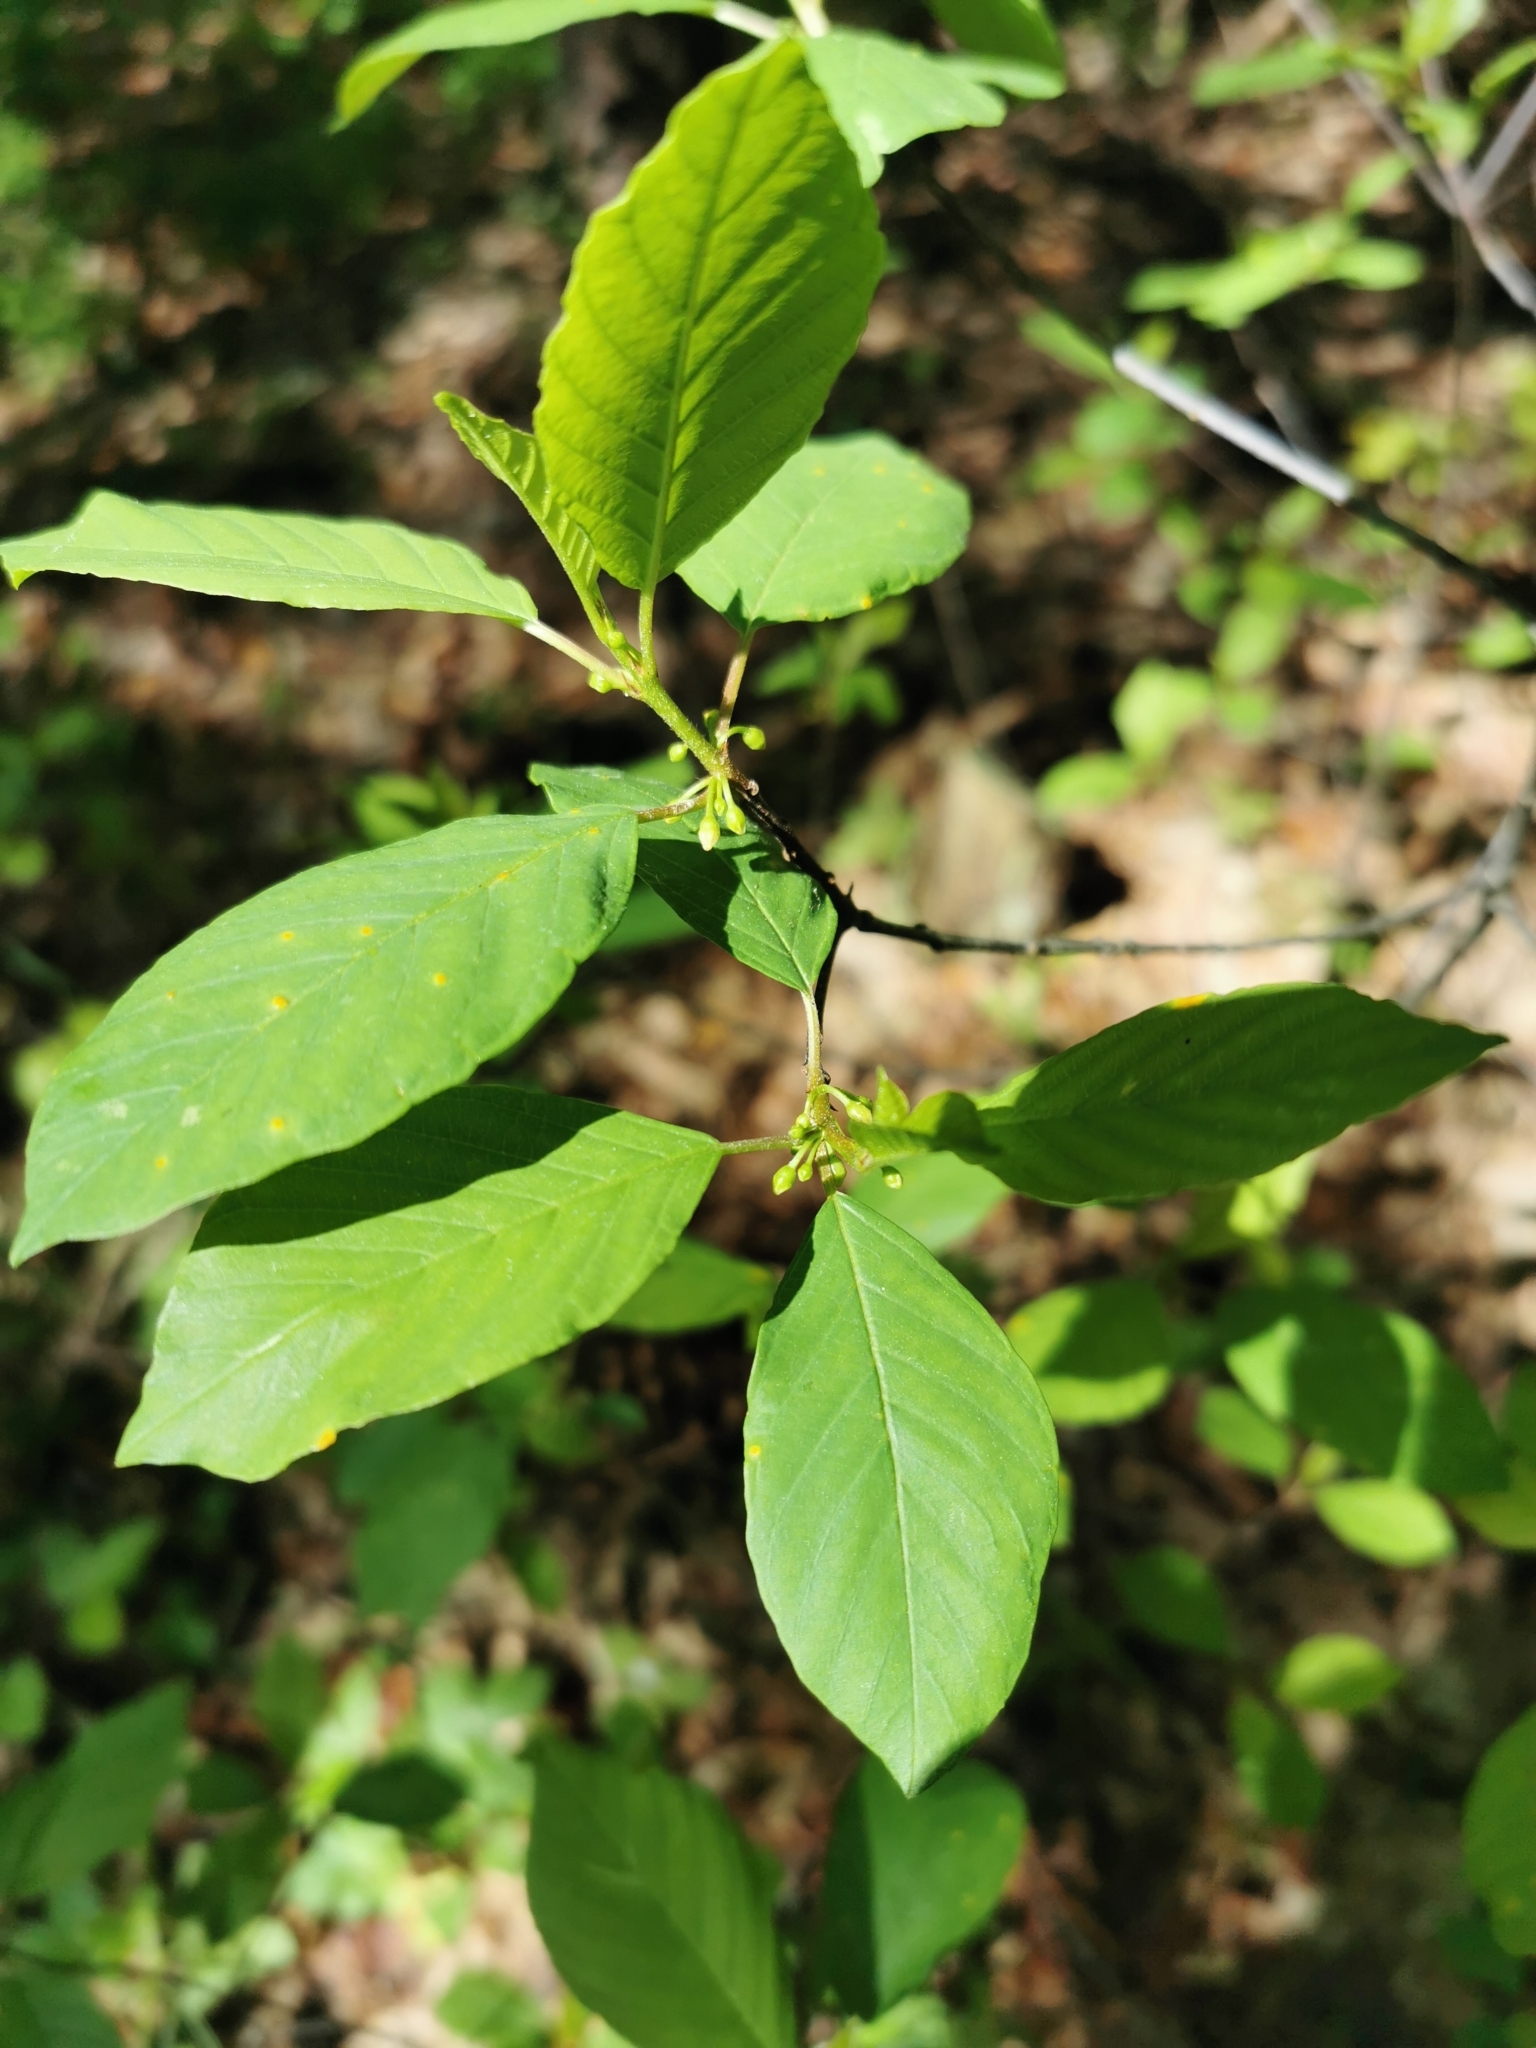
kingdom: Plantae
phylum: Tracheophyta
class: Magnoliopsida
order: Rosales
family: Rhamnaceae
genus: Frangula
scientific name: Frangula alnus
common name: Alder buckthorn
